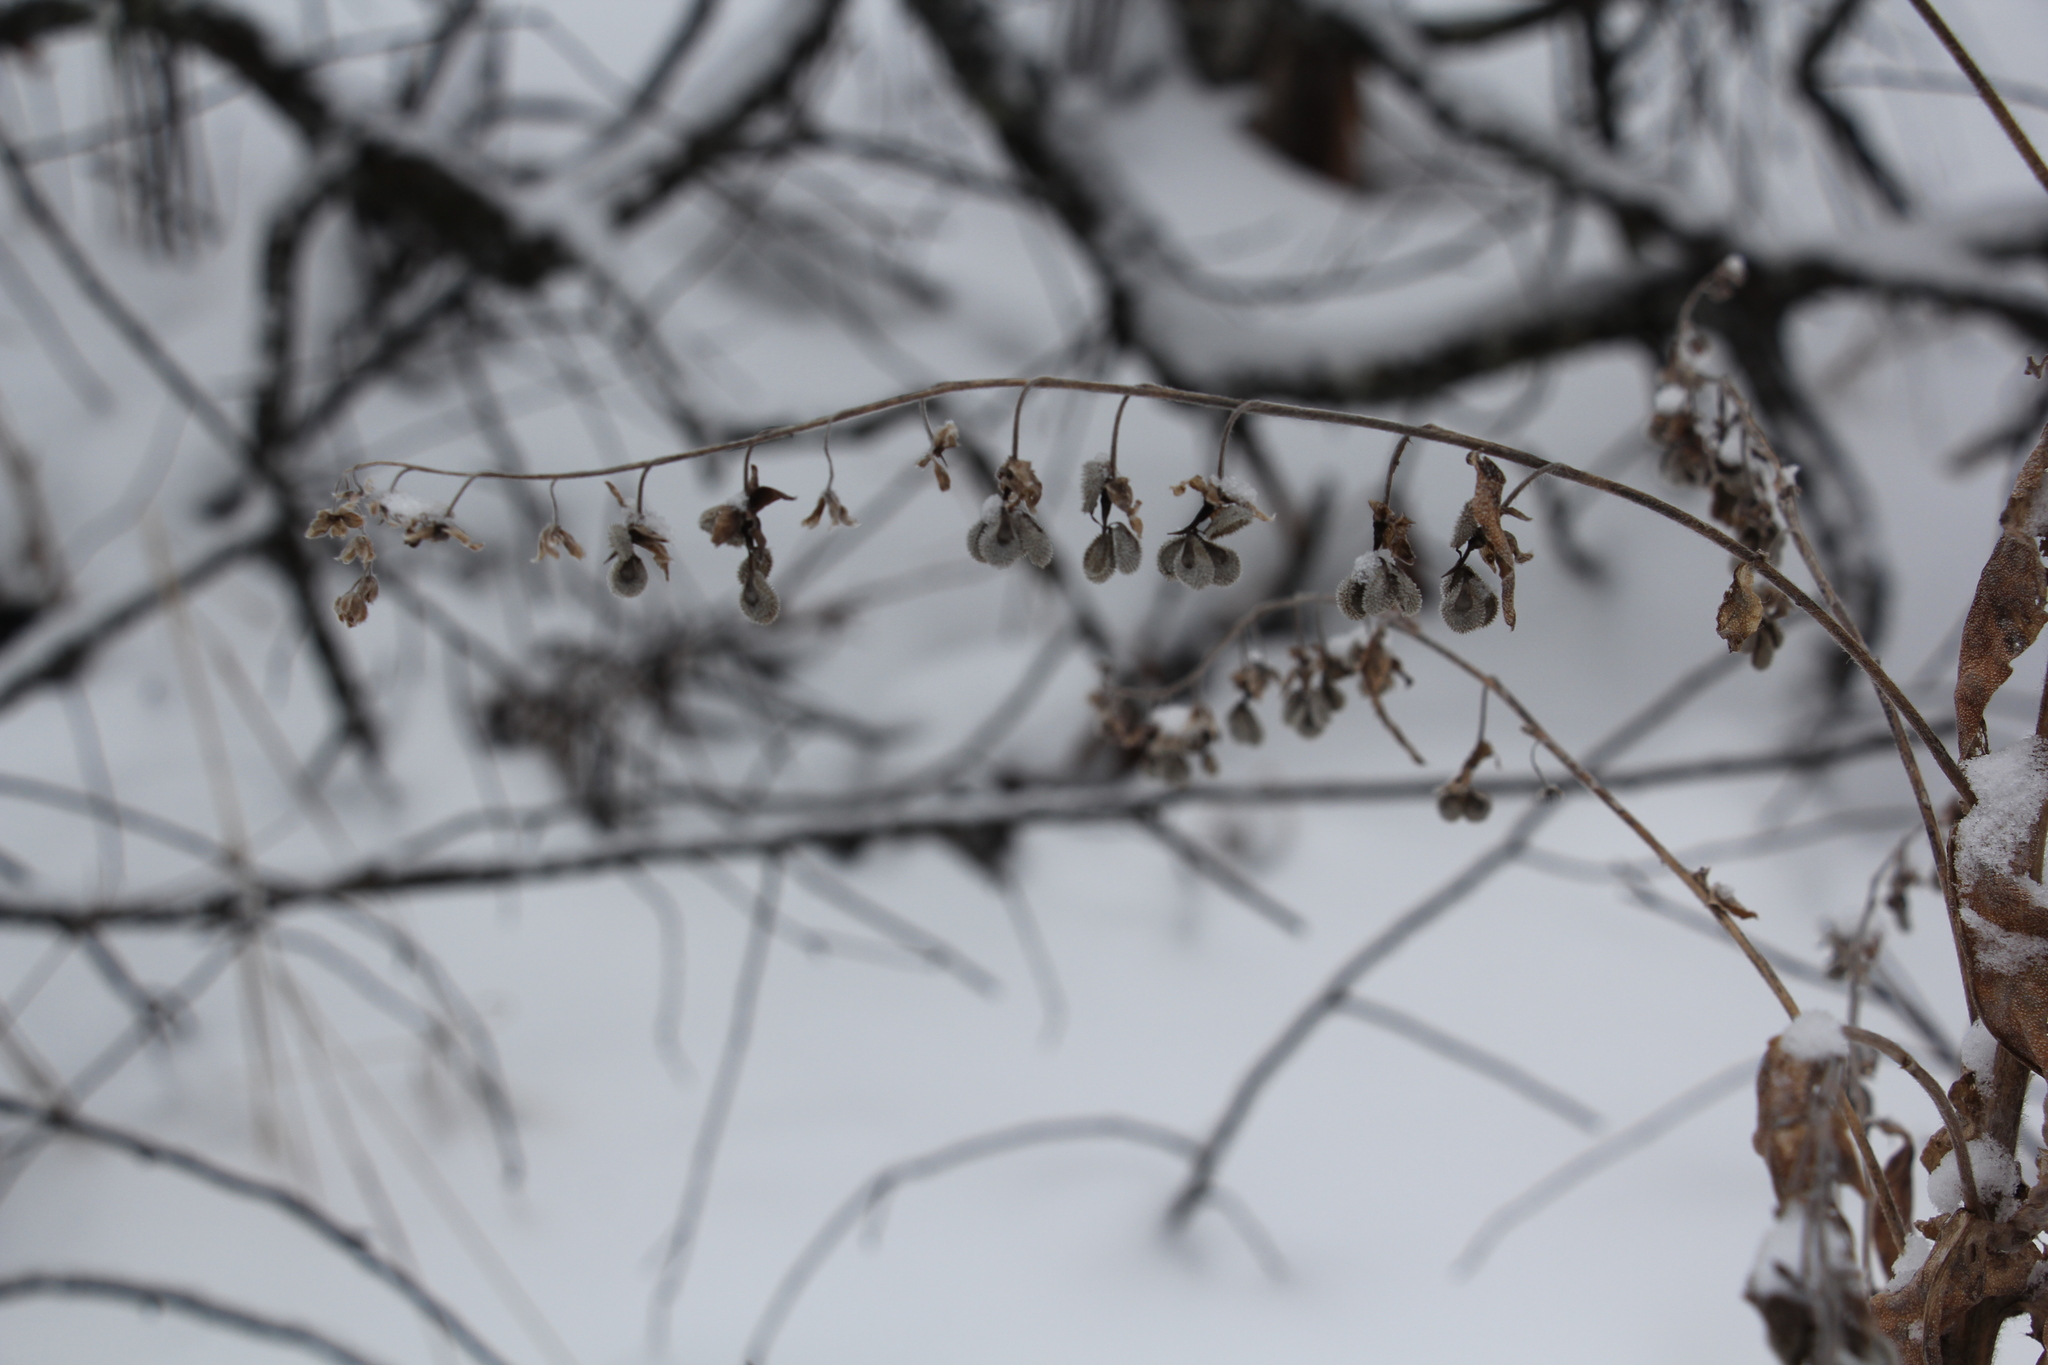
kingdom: Plantae
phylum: Tracheophyta
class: Magnoliopsida
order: Boraginales
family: Boraginaceae
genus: Cynoglossum
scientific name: Cynoglossum officinale
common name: Hound's-tongue
